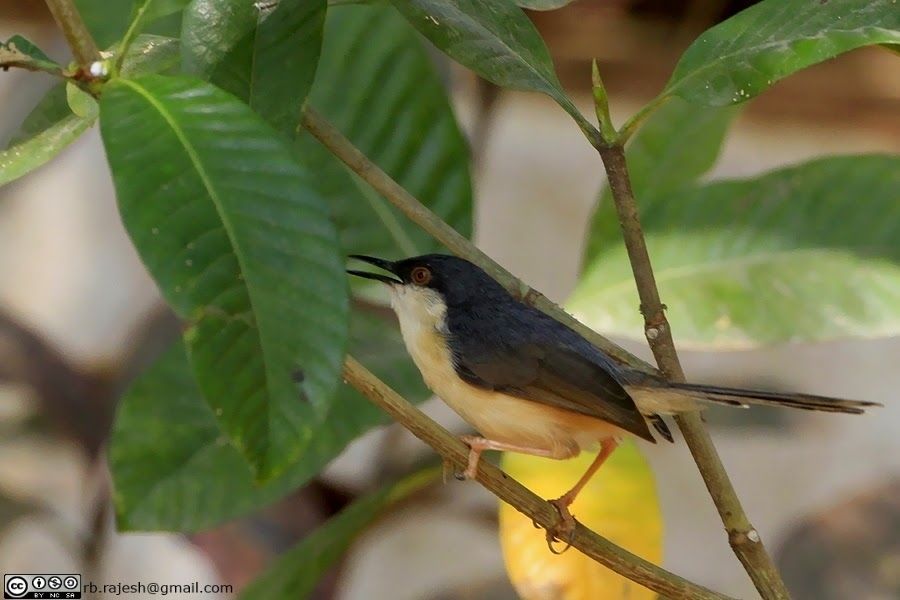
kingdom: Animalia
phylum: Chordata
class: Aves
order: Passeriformes
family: Cisticolidae
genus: Prinia
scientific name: Prinia socialis
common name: Ashy prinia
